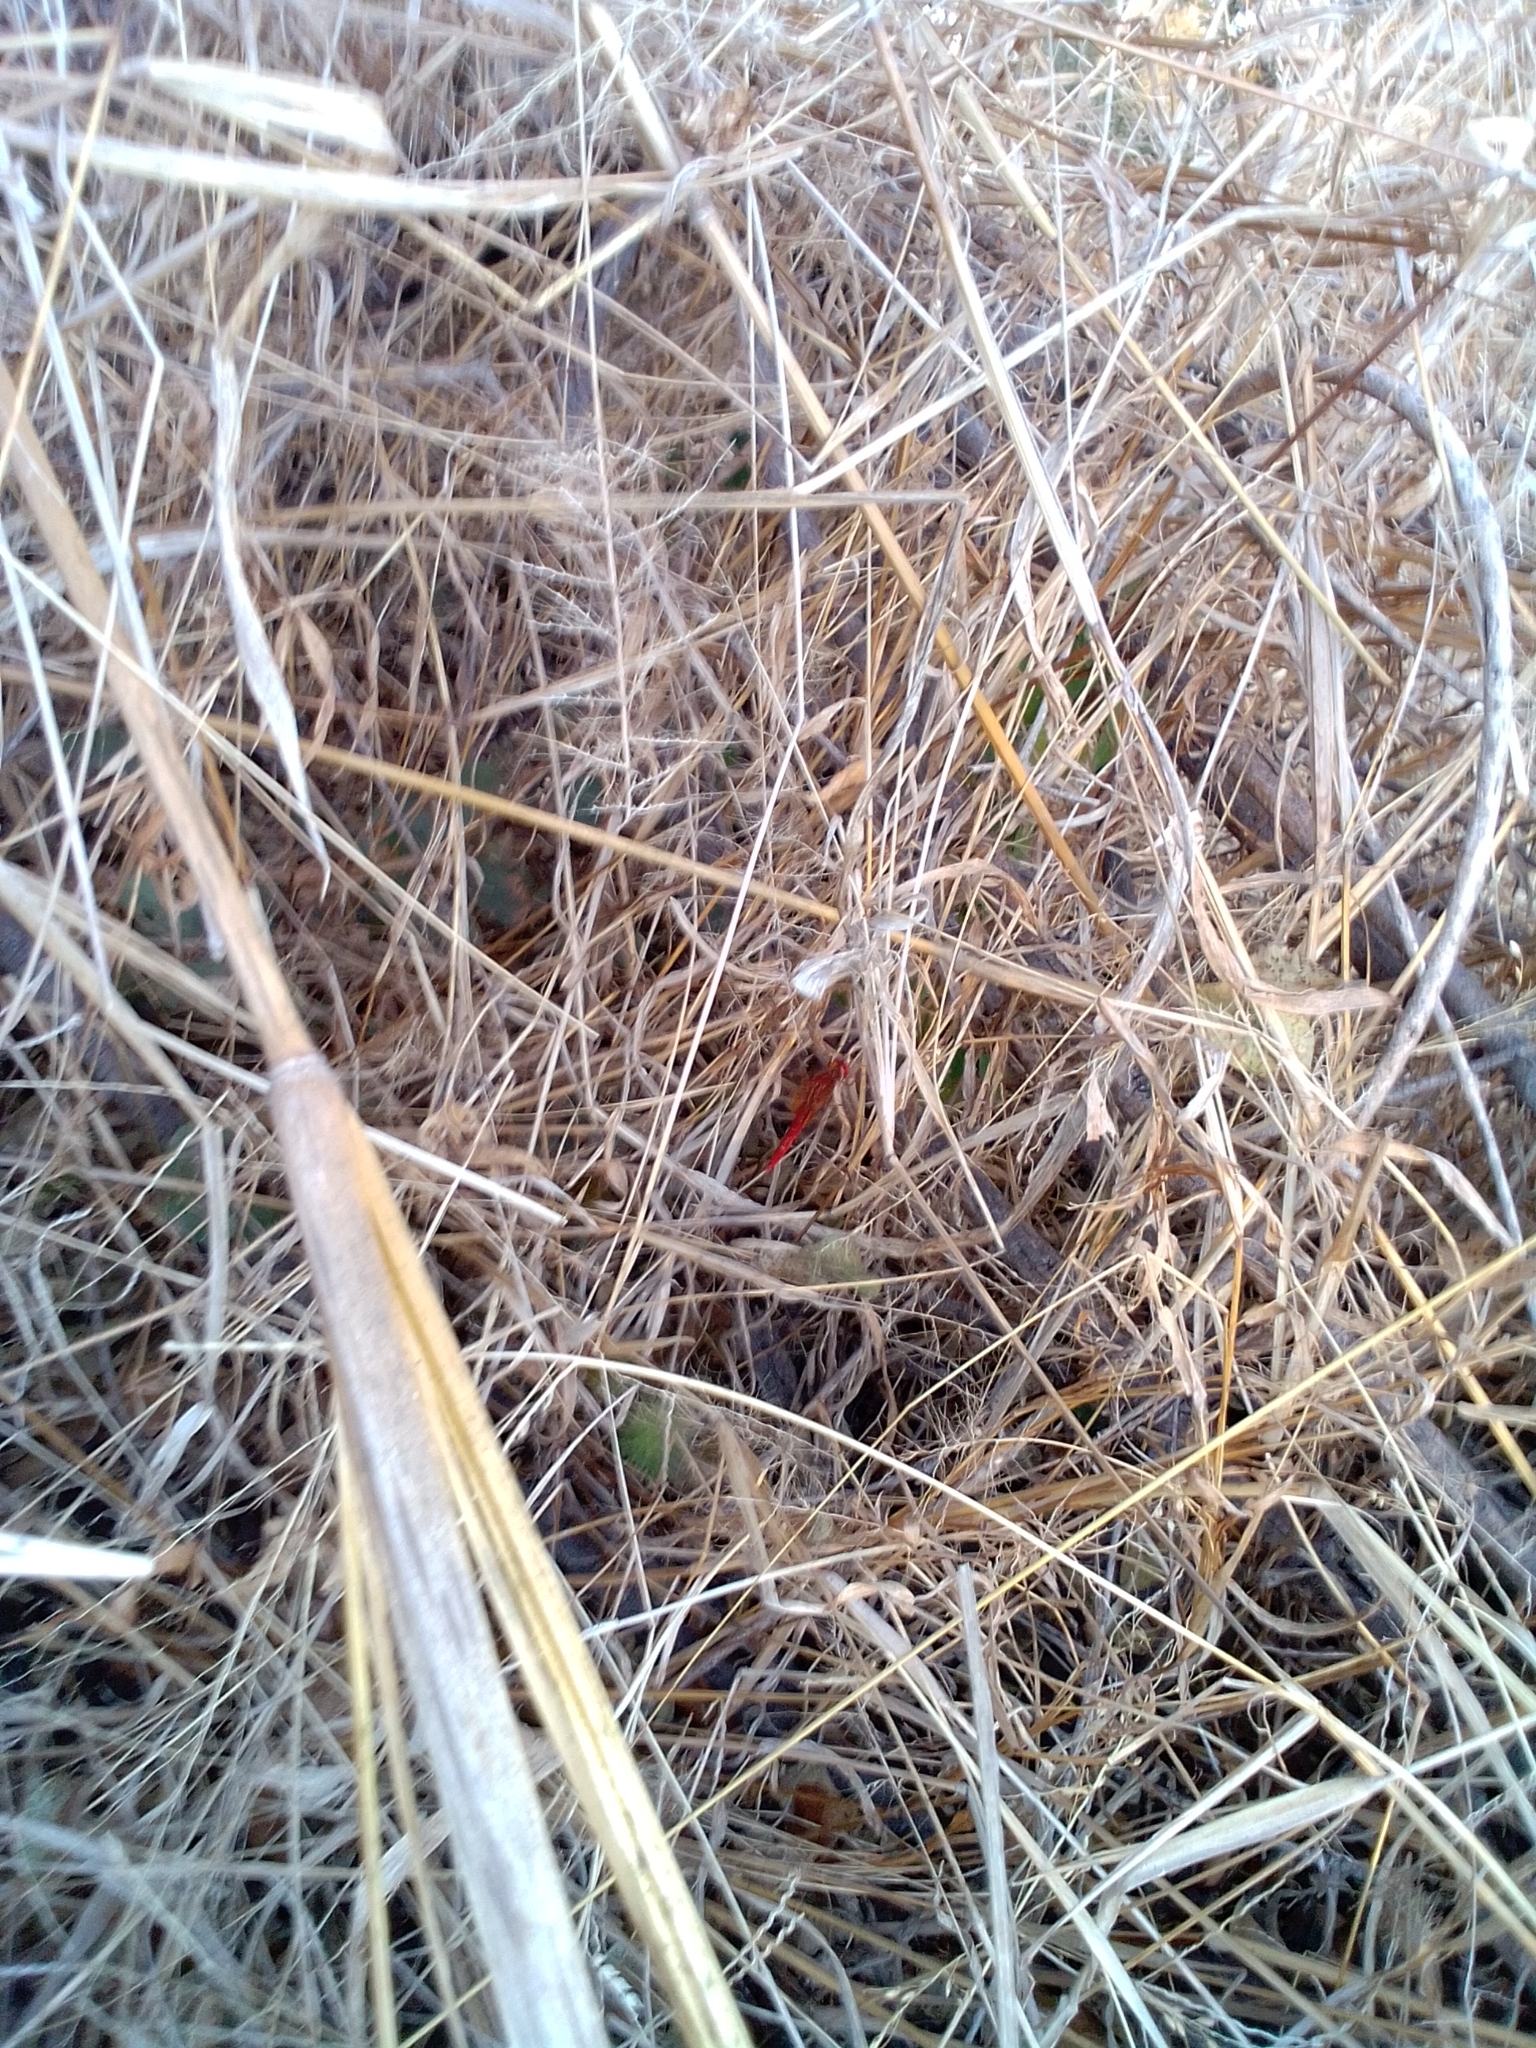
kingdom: Animalia
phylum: Arthropoda
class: Insecta
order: Odonata
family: Libellulidae
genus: Crocothemis
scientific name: Crocothemis erythraea
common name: Scarlet dragonfly
